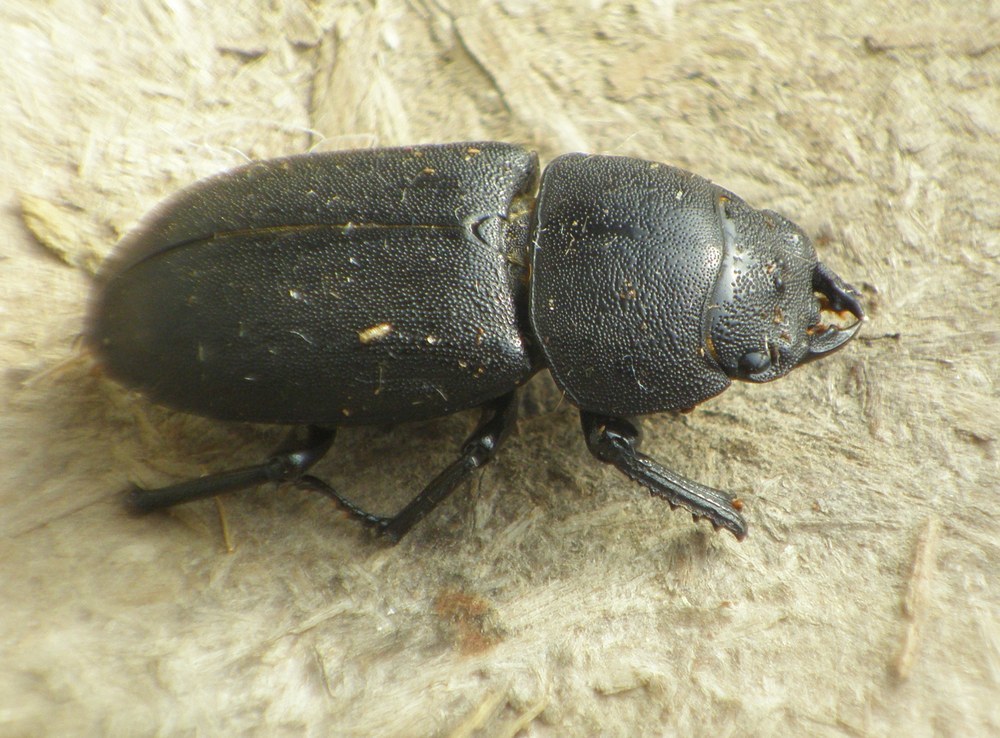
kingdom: Animalia
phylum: Arthropoda
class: Insecta
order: Coleoptera
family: Lucanidae
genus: Dorcus
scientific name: Dorcus parallelipipedus
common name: Lesser stag beetle
